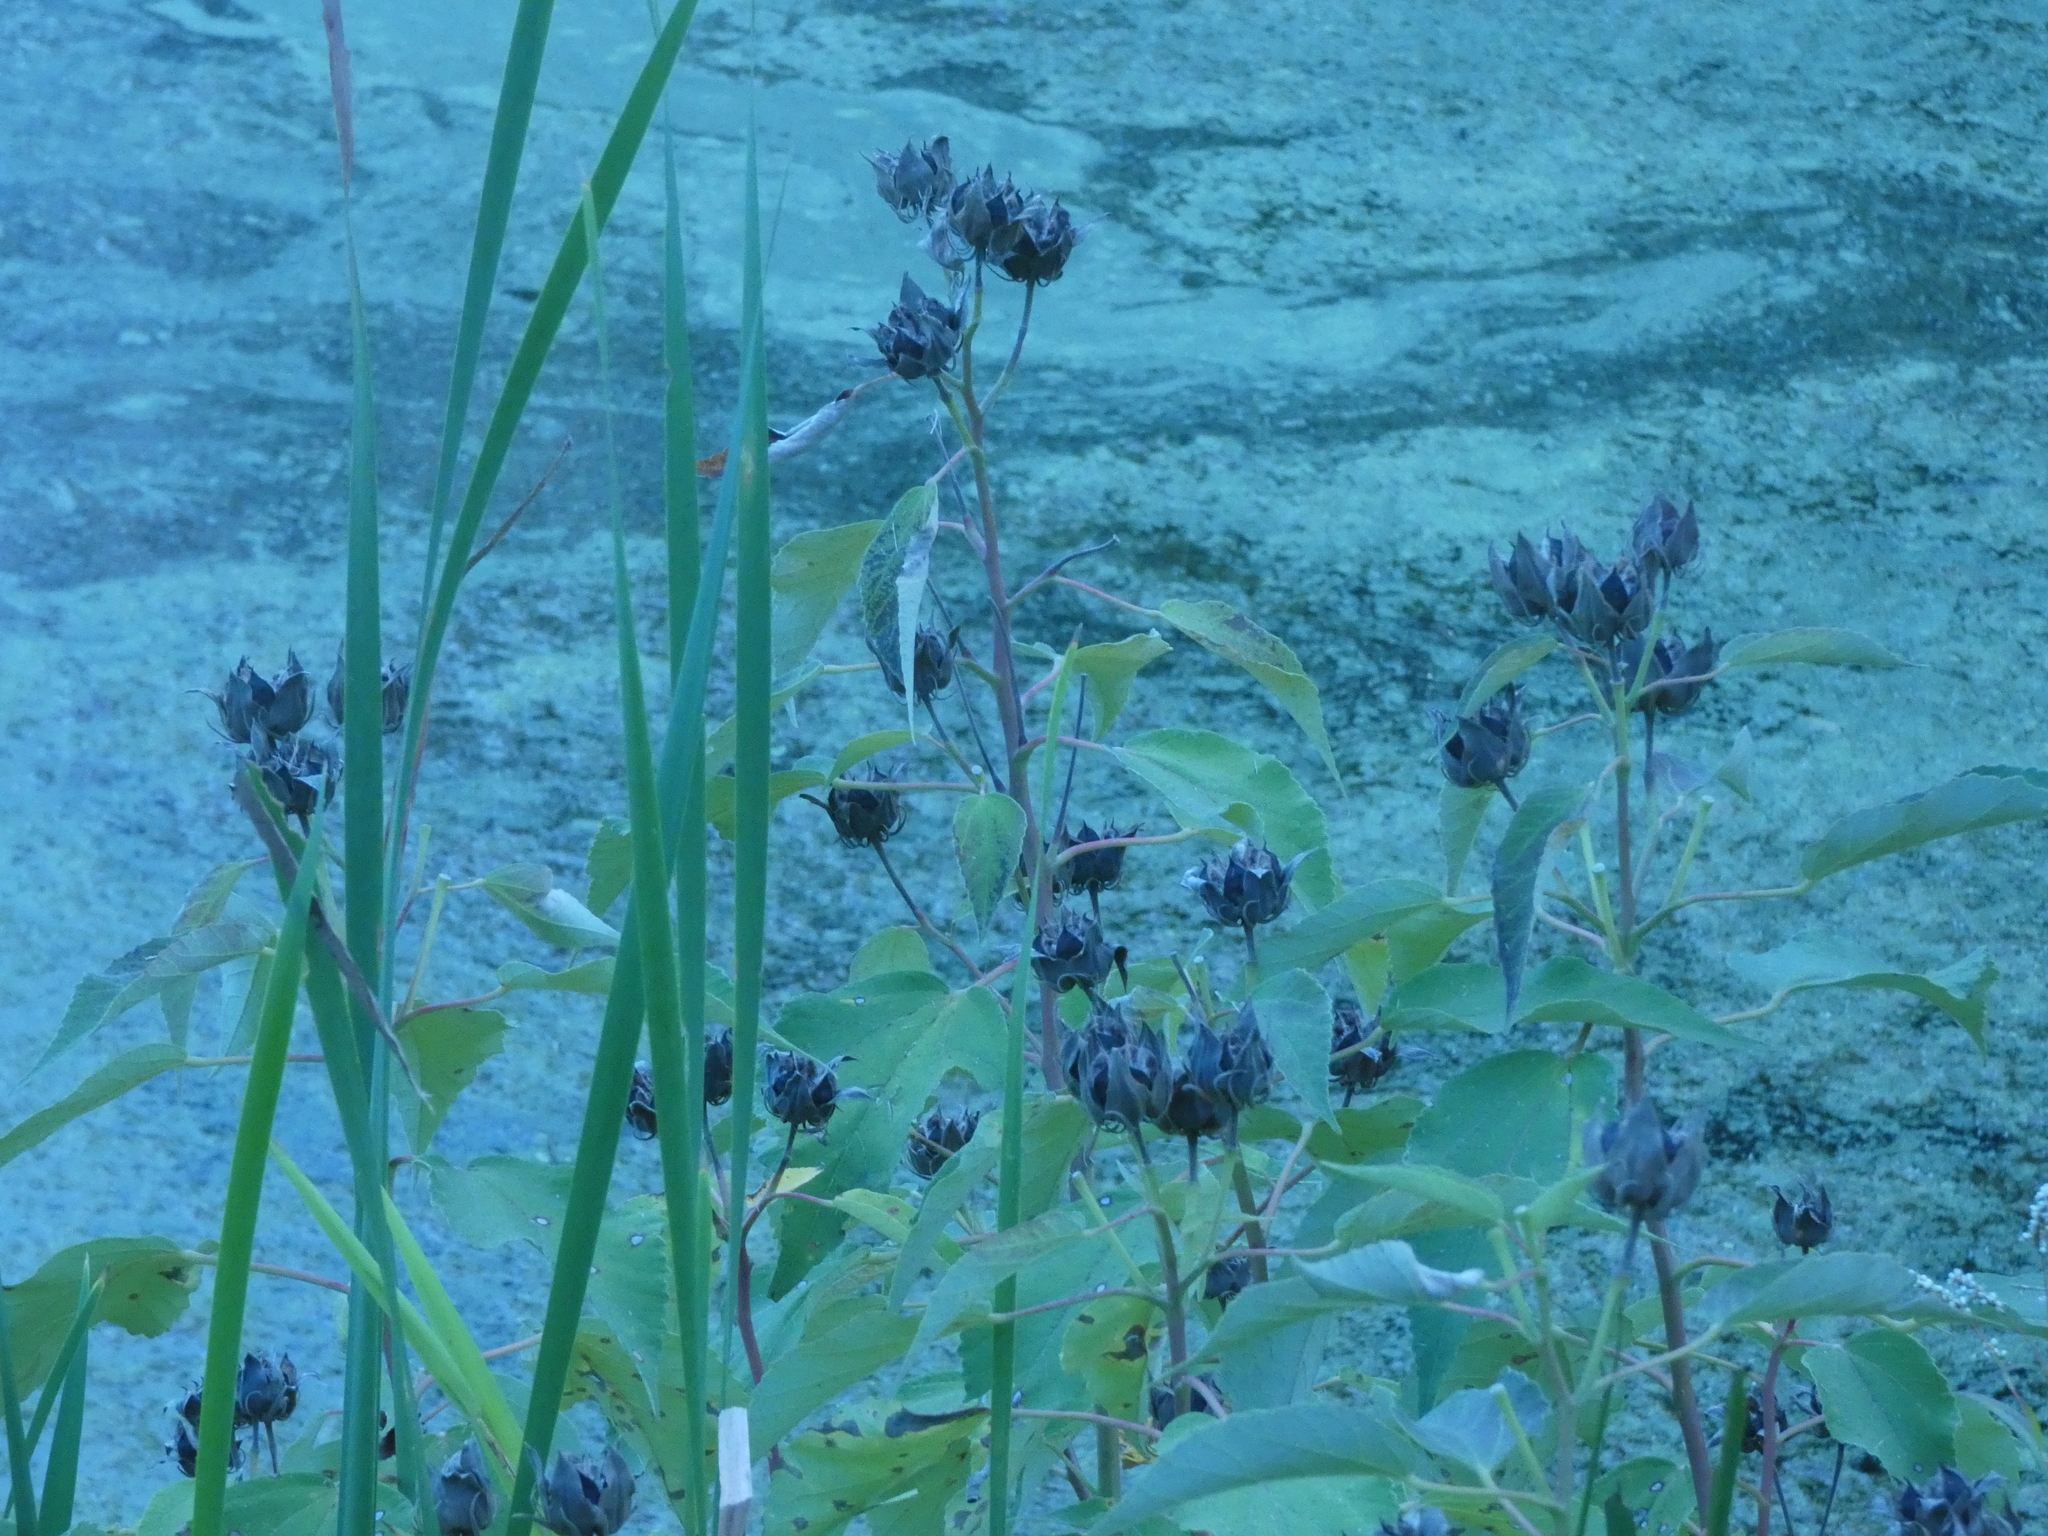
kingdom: Plantae
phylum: Tracheophyta
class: Magnoliopsida
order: Malvales
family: Malvaceae
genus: Hibiscus
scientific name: Hibiscus moscheutos
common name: Common rose-mallow
